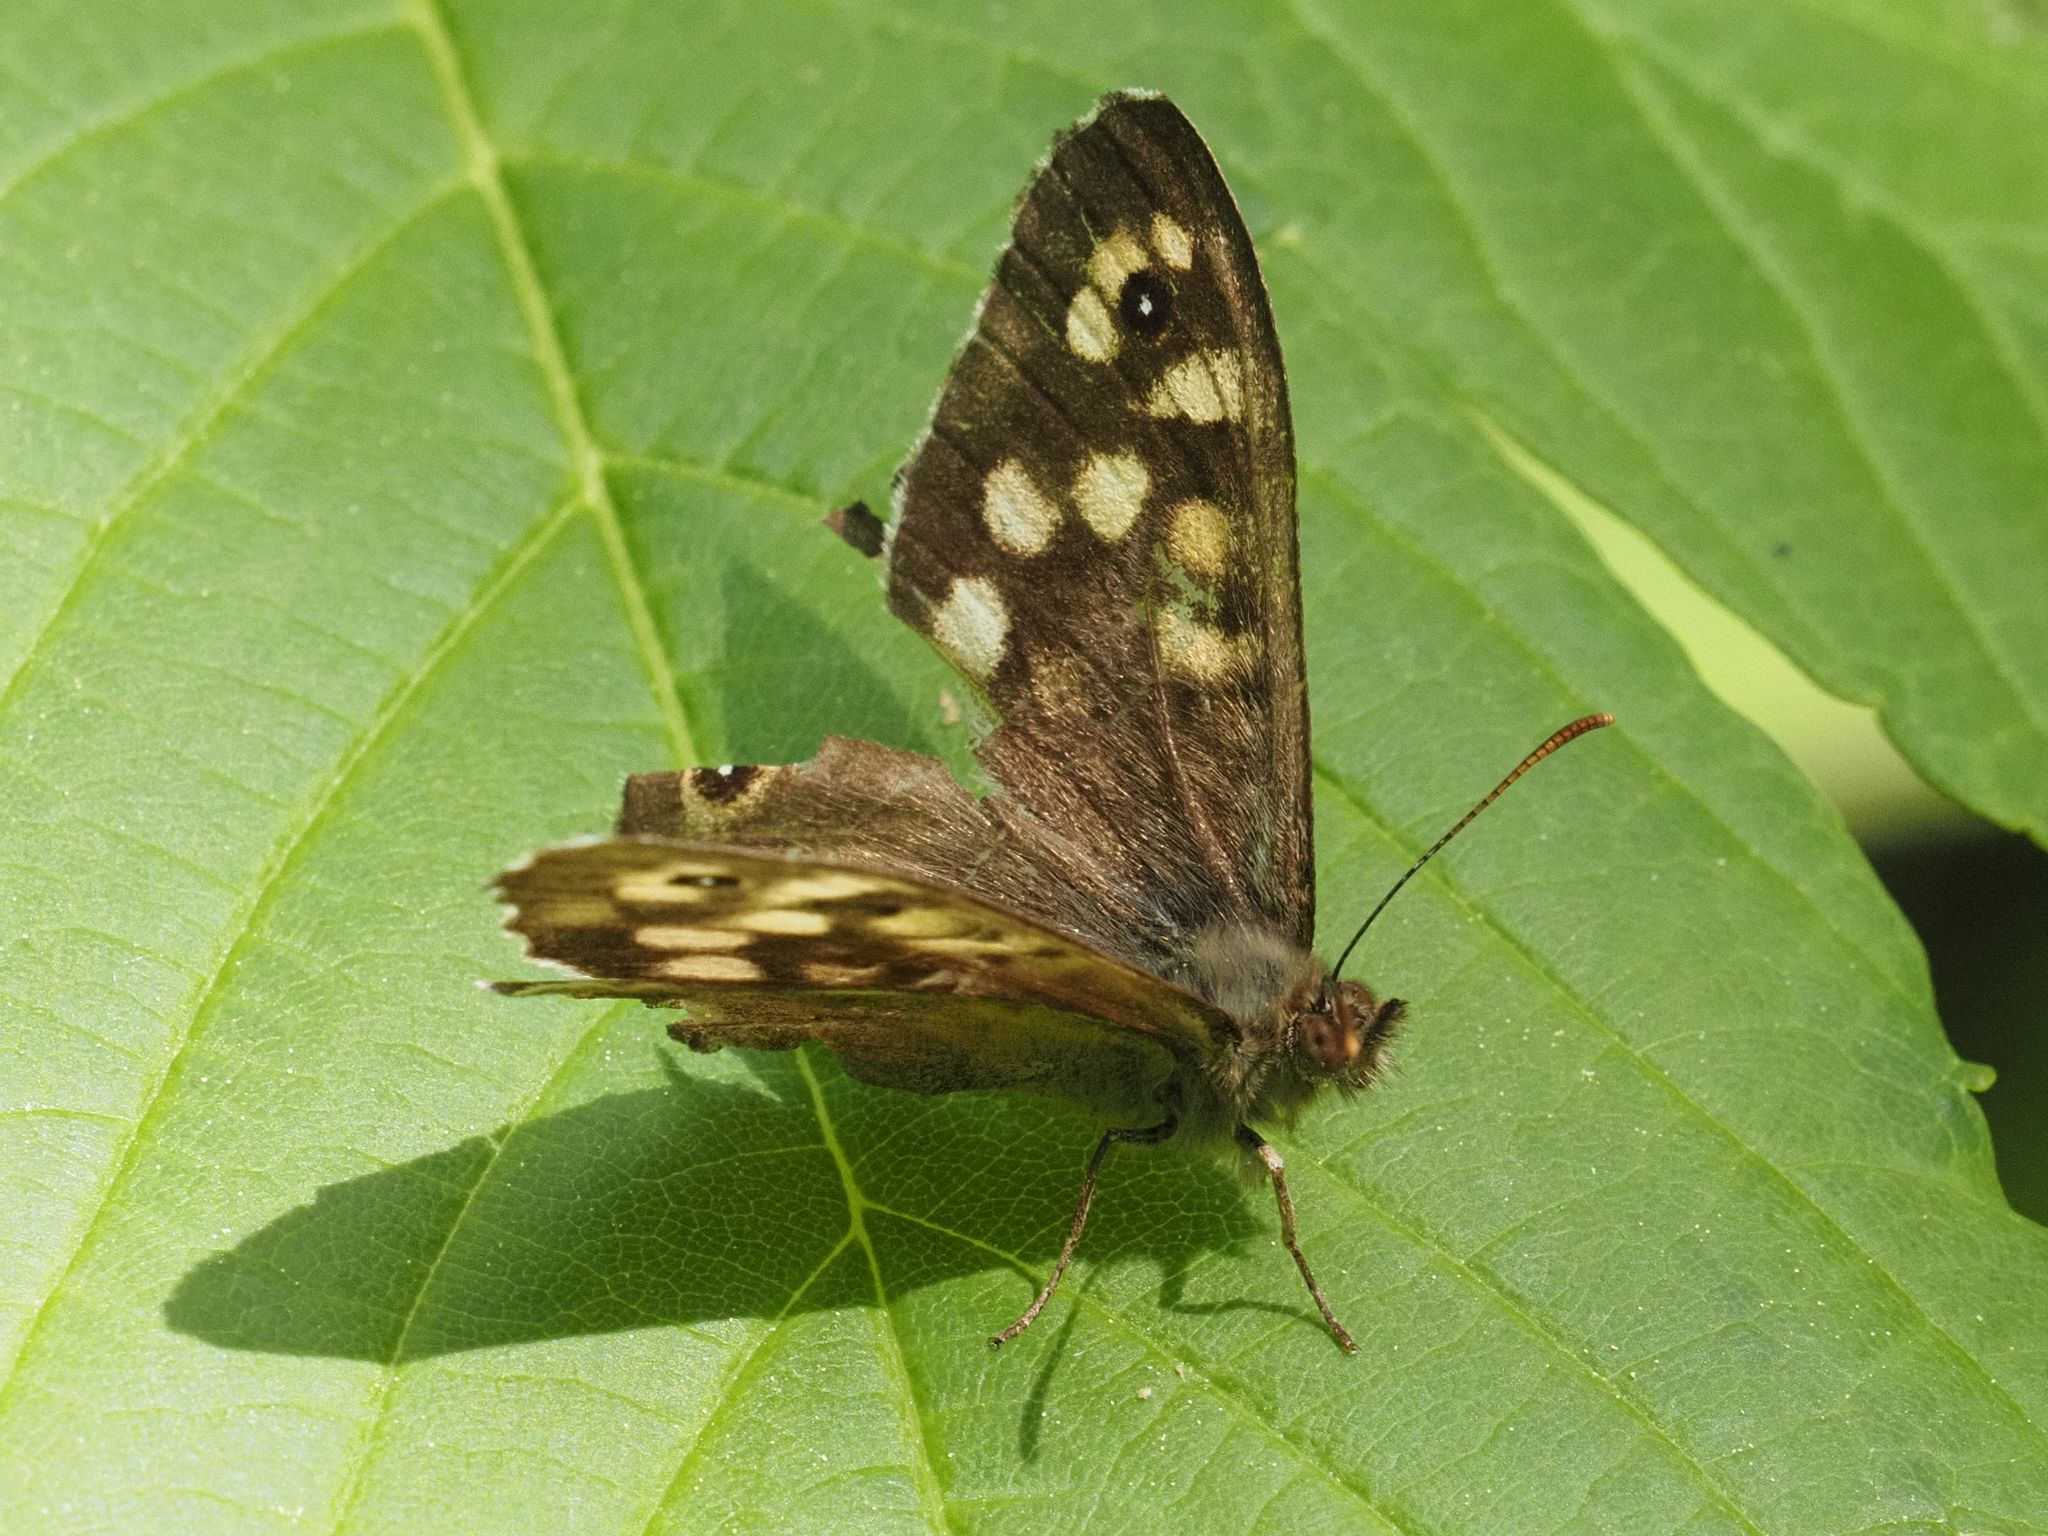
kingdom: Animalia
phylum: Arthropoda
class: Insecta
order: Lepidoptera
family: Nymphalidae
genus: Pararge
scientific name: Pararge aegeria
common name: Speckled wood
